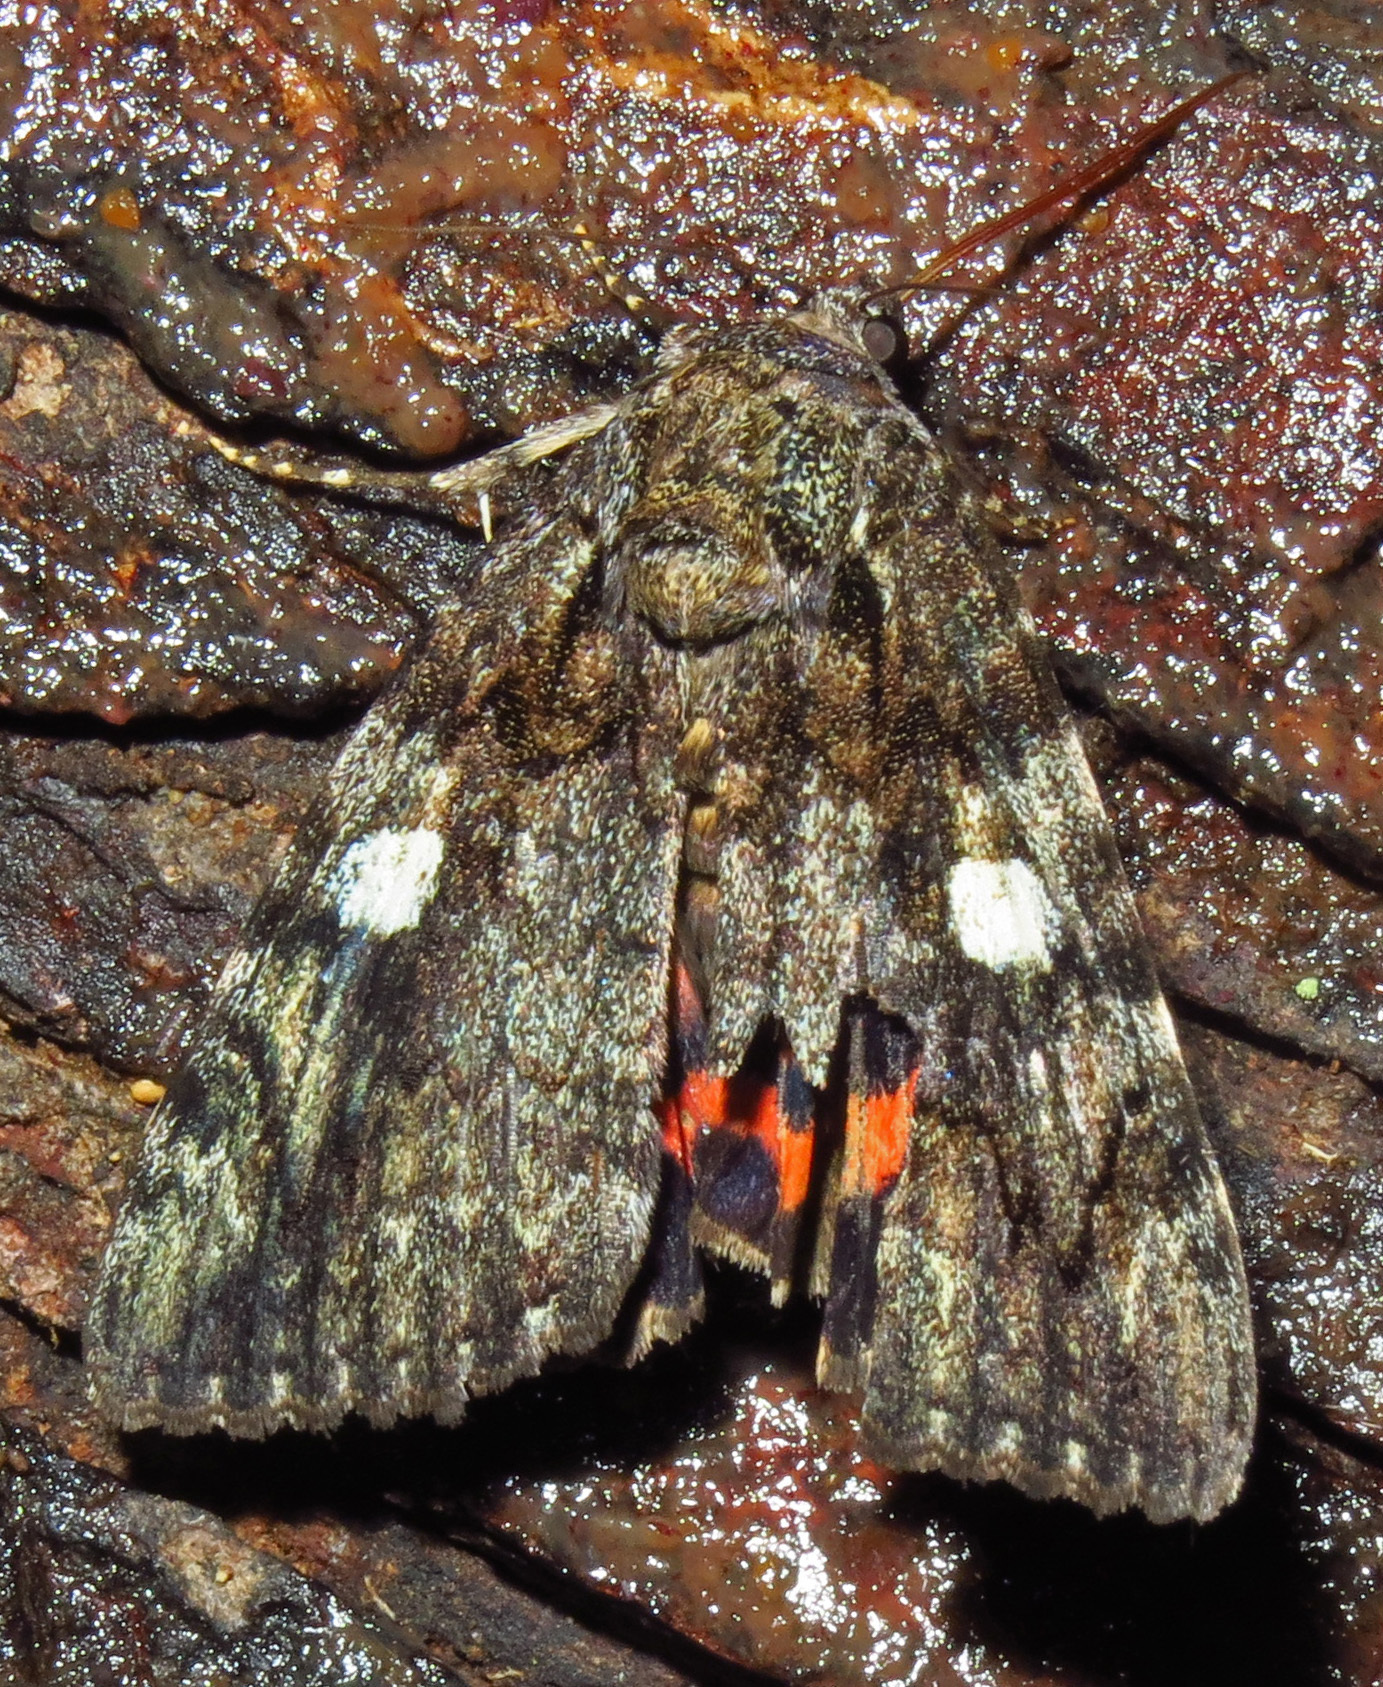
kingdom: Animalia
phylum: Arthropoda
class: Insecta
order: Lepidoptera
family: Erebidae
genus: Catocala
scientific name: Catocala ilia
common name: Ilia underwing
